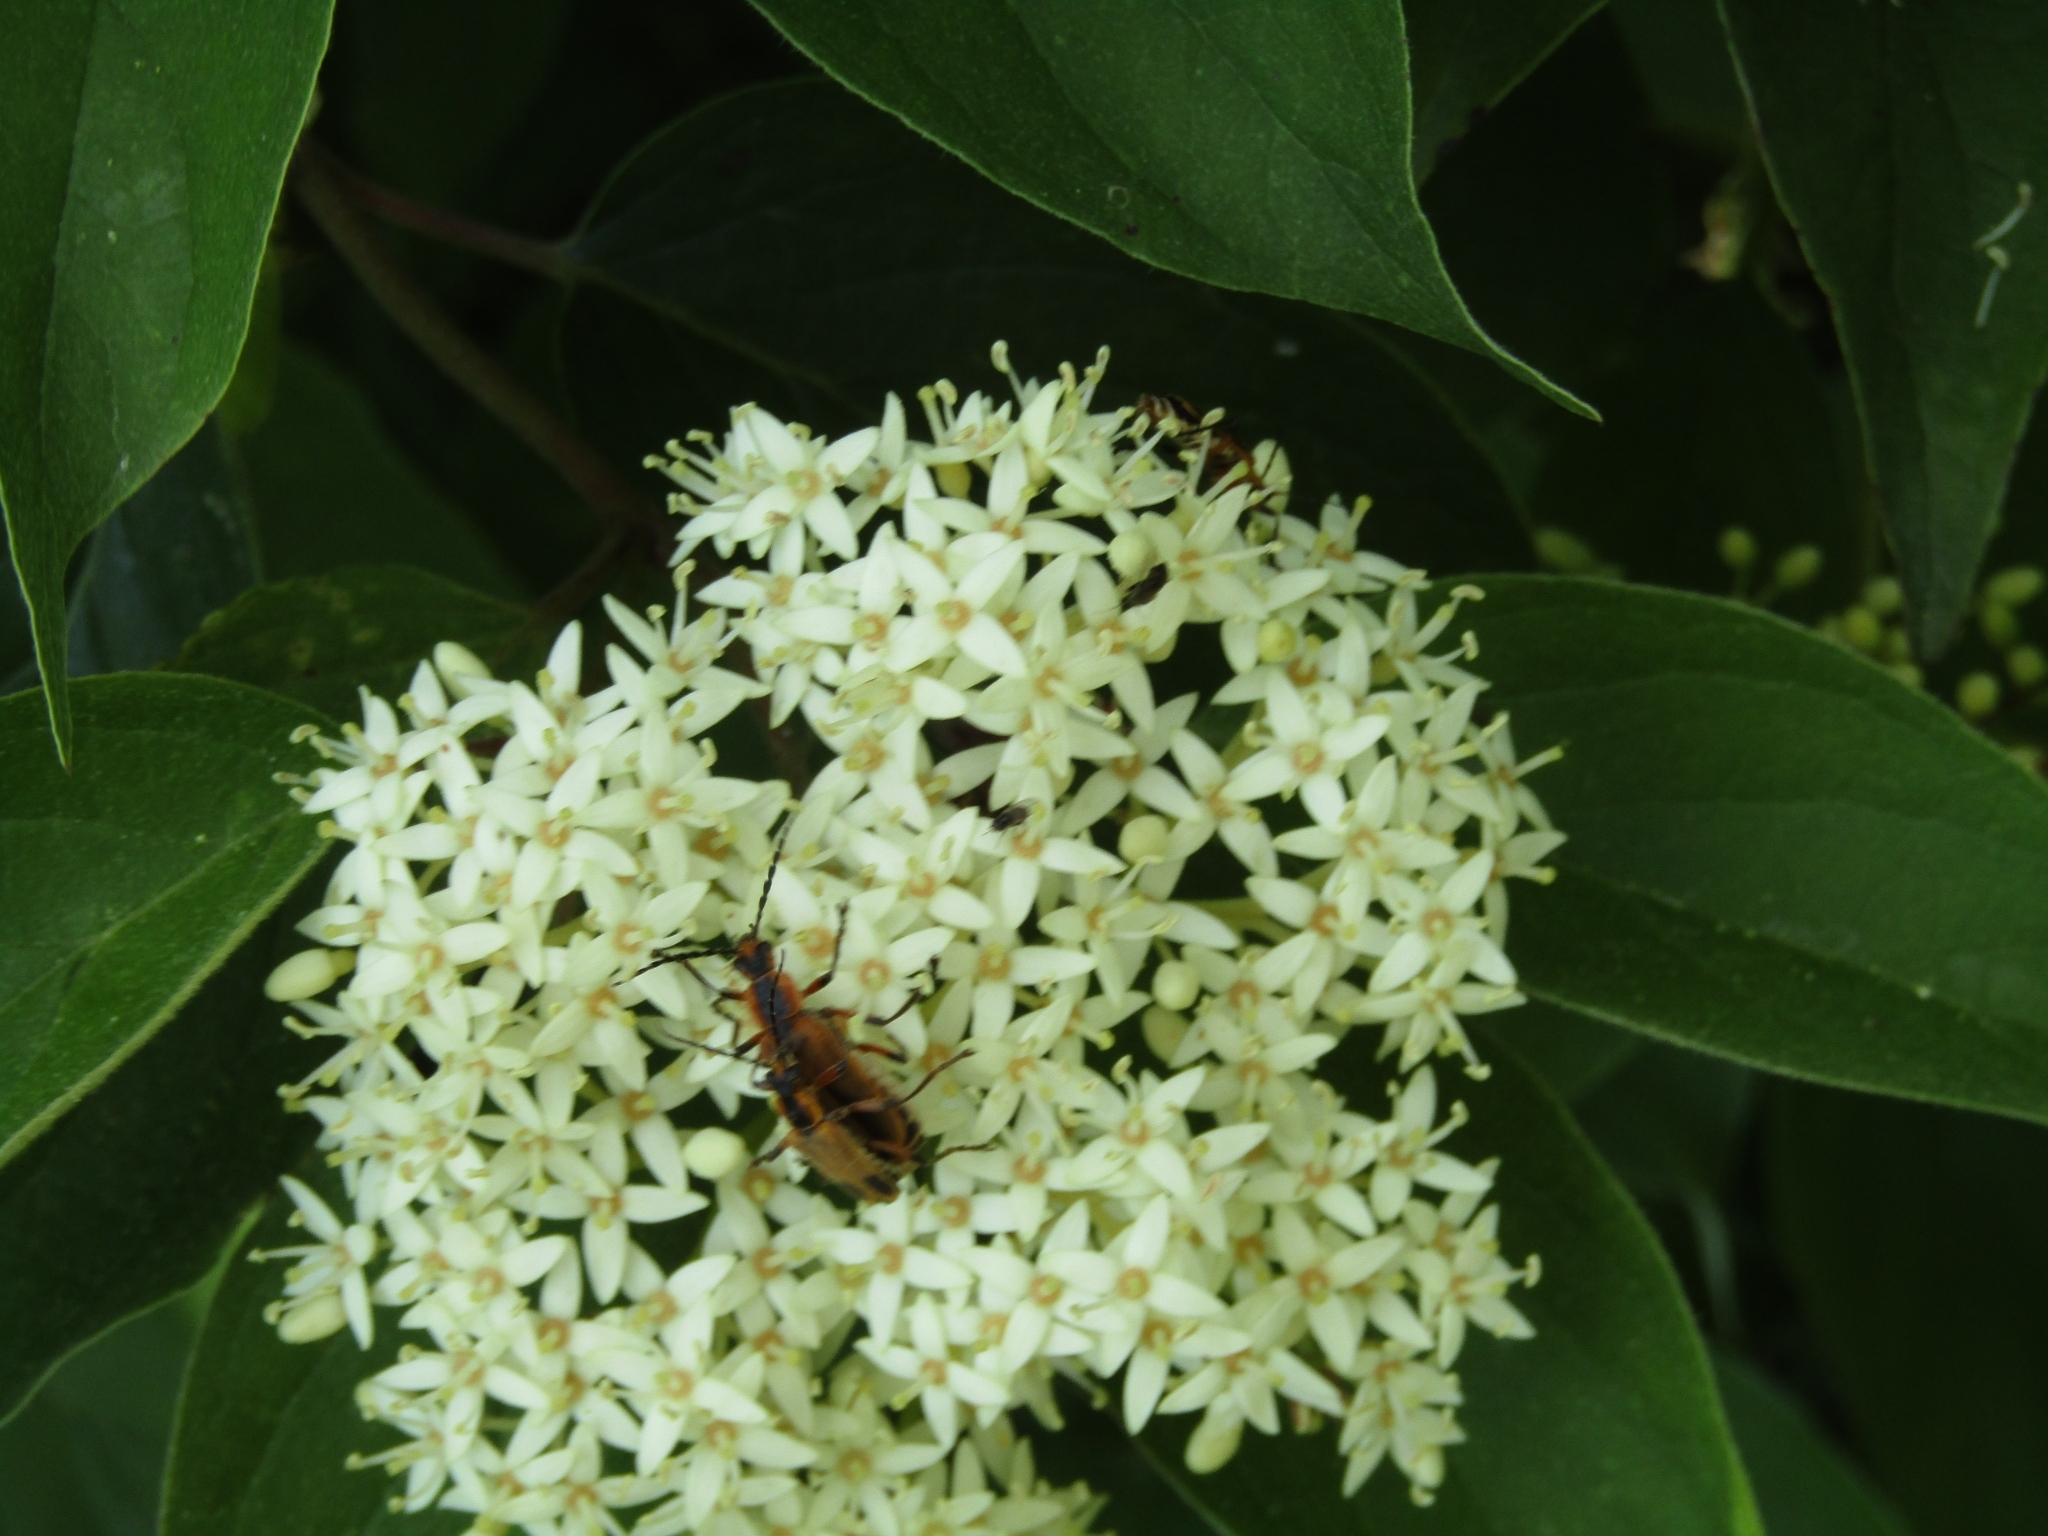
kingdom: Animalia
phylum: Arthropoda
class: Insecta
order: Coleoptera
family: Cantharidae
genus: Chauliognathus
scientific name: Chauliognathus marginatus
